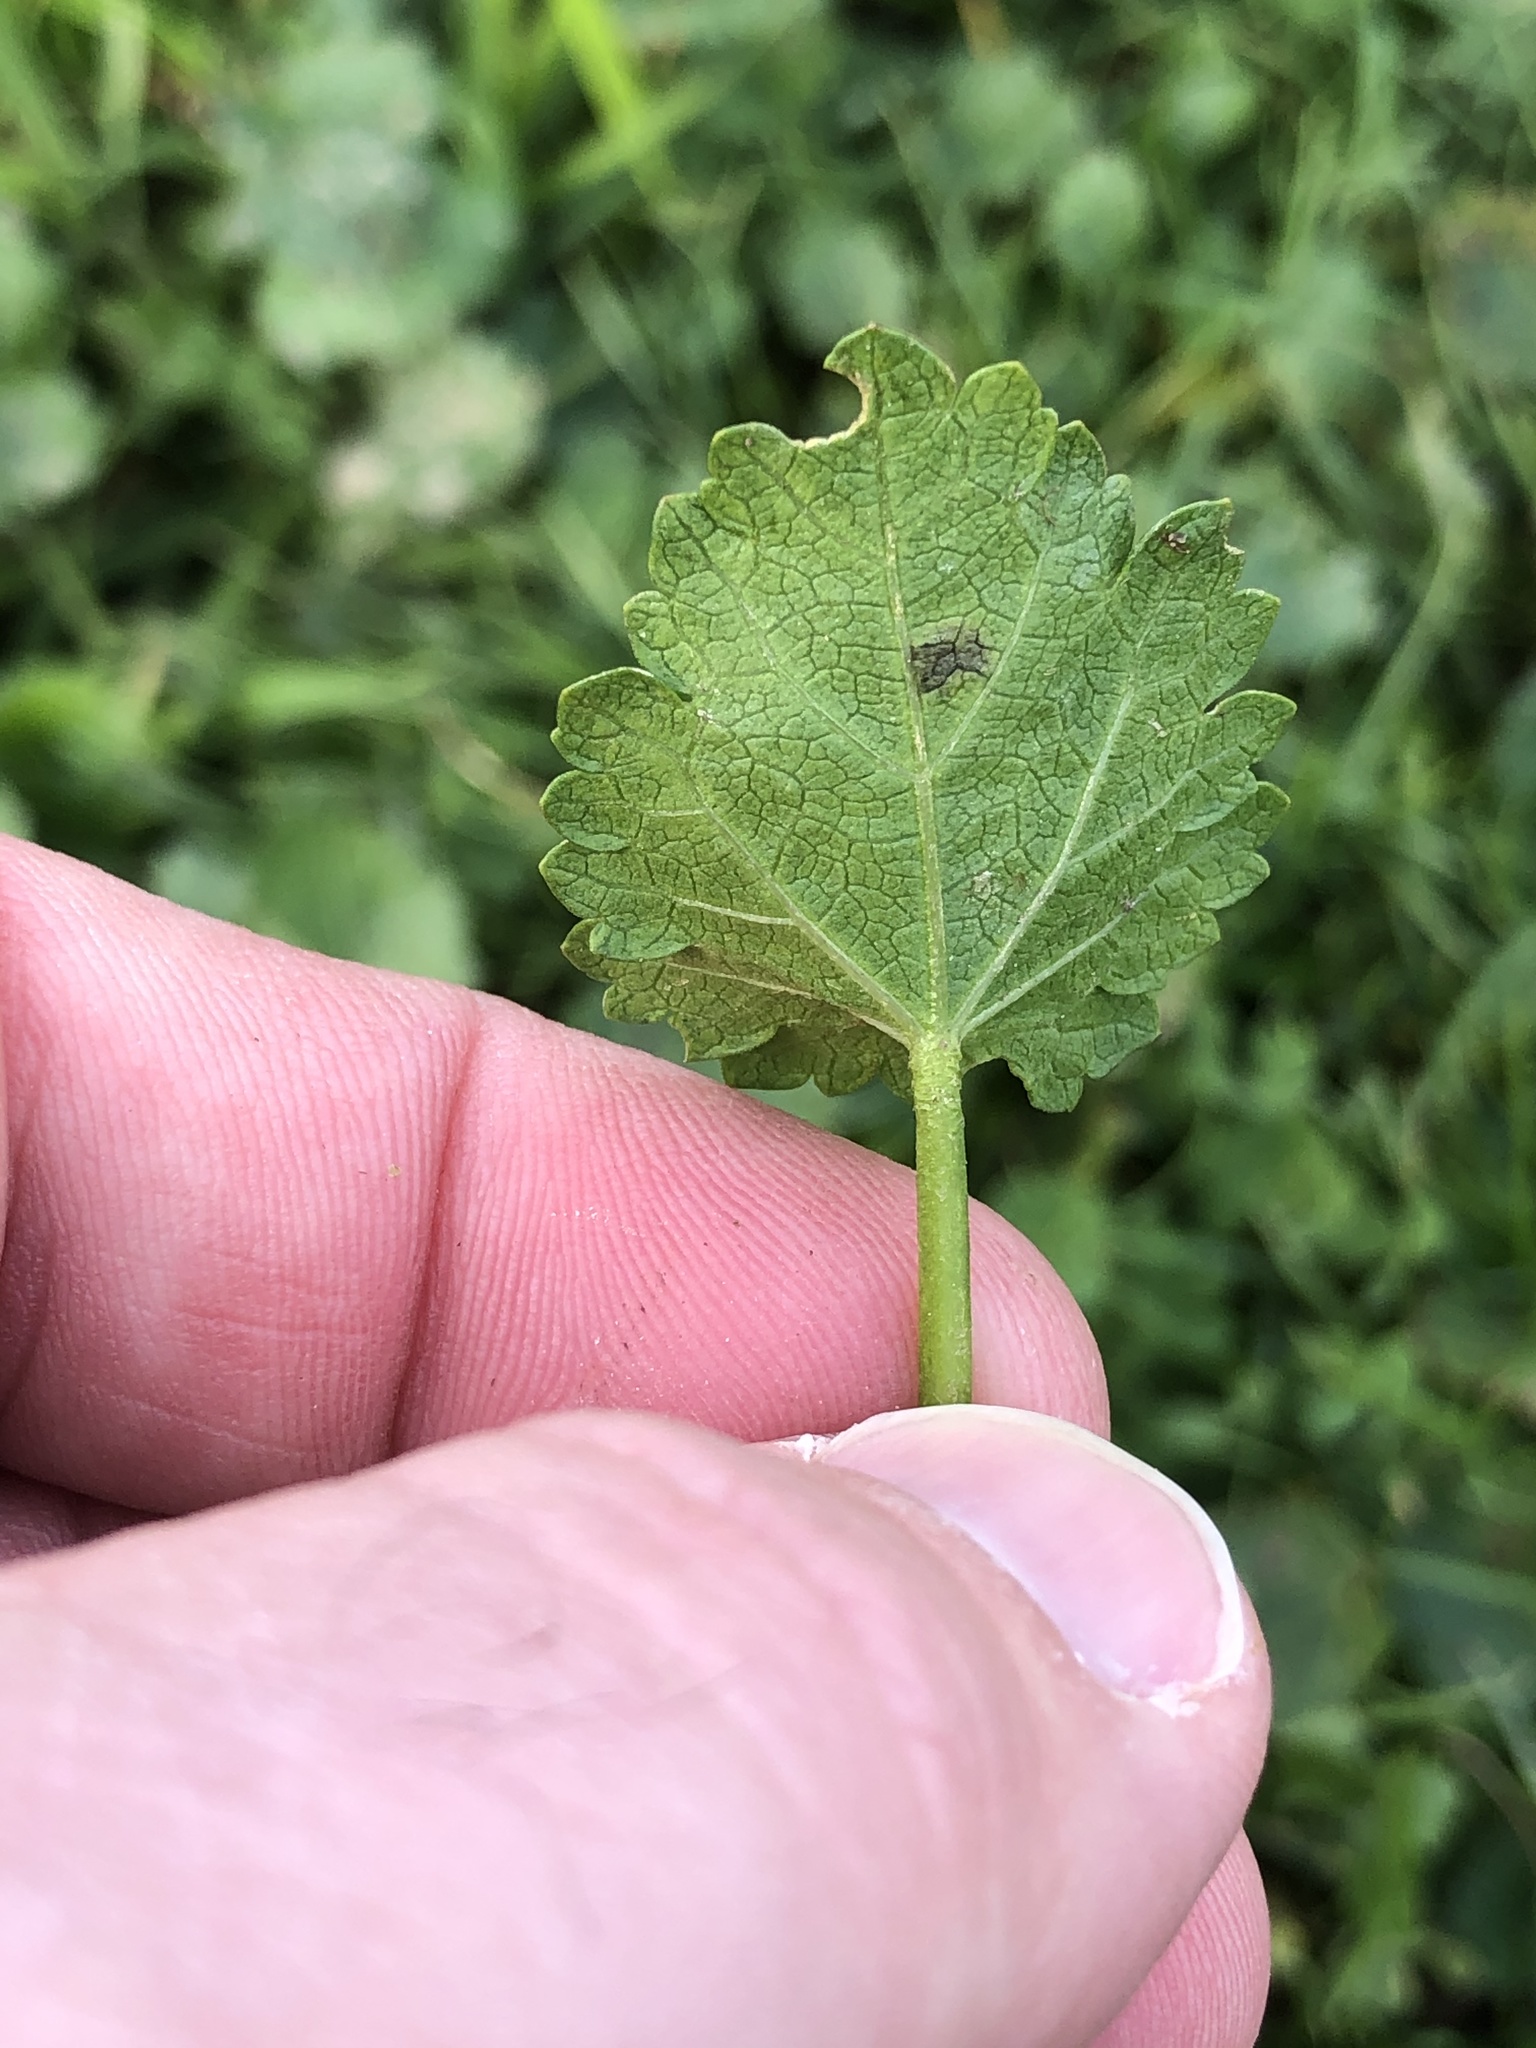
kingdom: Plantae
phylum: Tracheophyta
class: Magnoliopsida
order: Malvales
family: Malvaceae
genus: Modiola
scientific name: Modiola caroliniana
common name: Carolina bristlemallow
